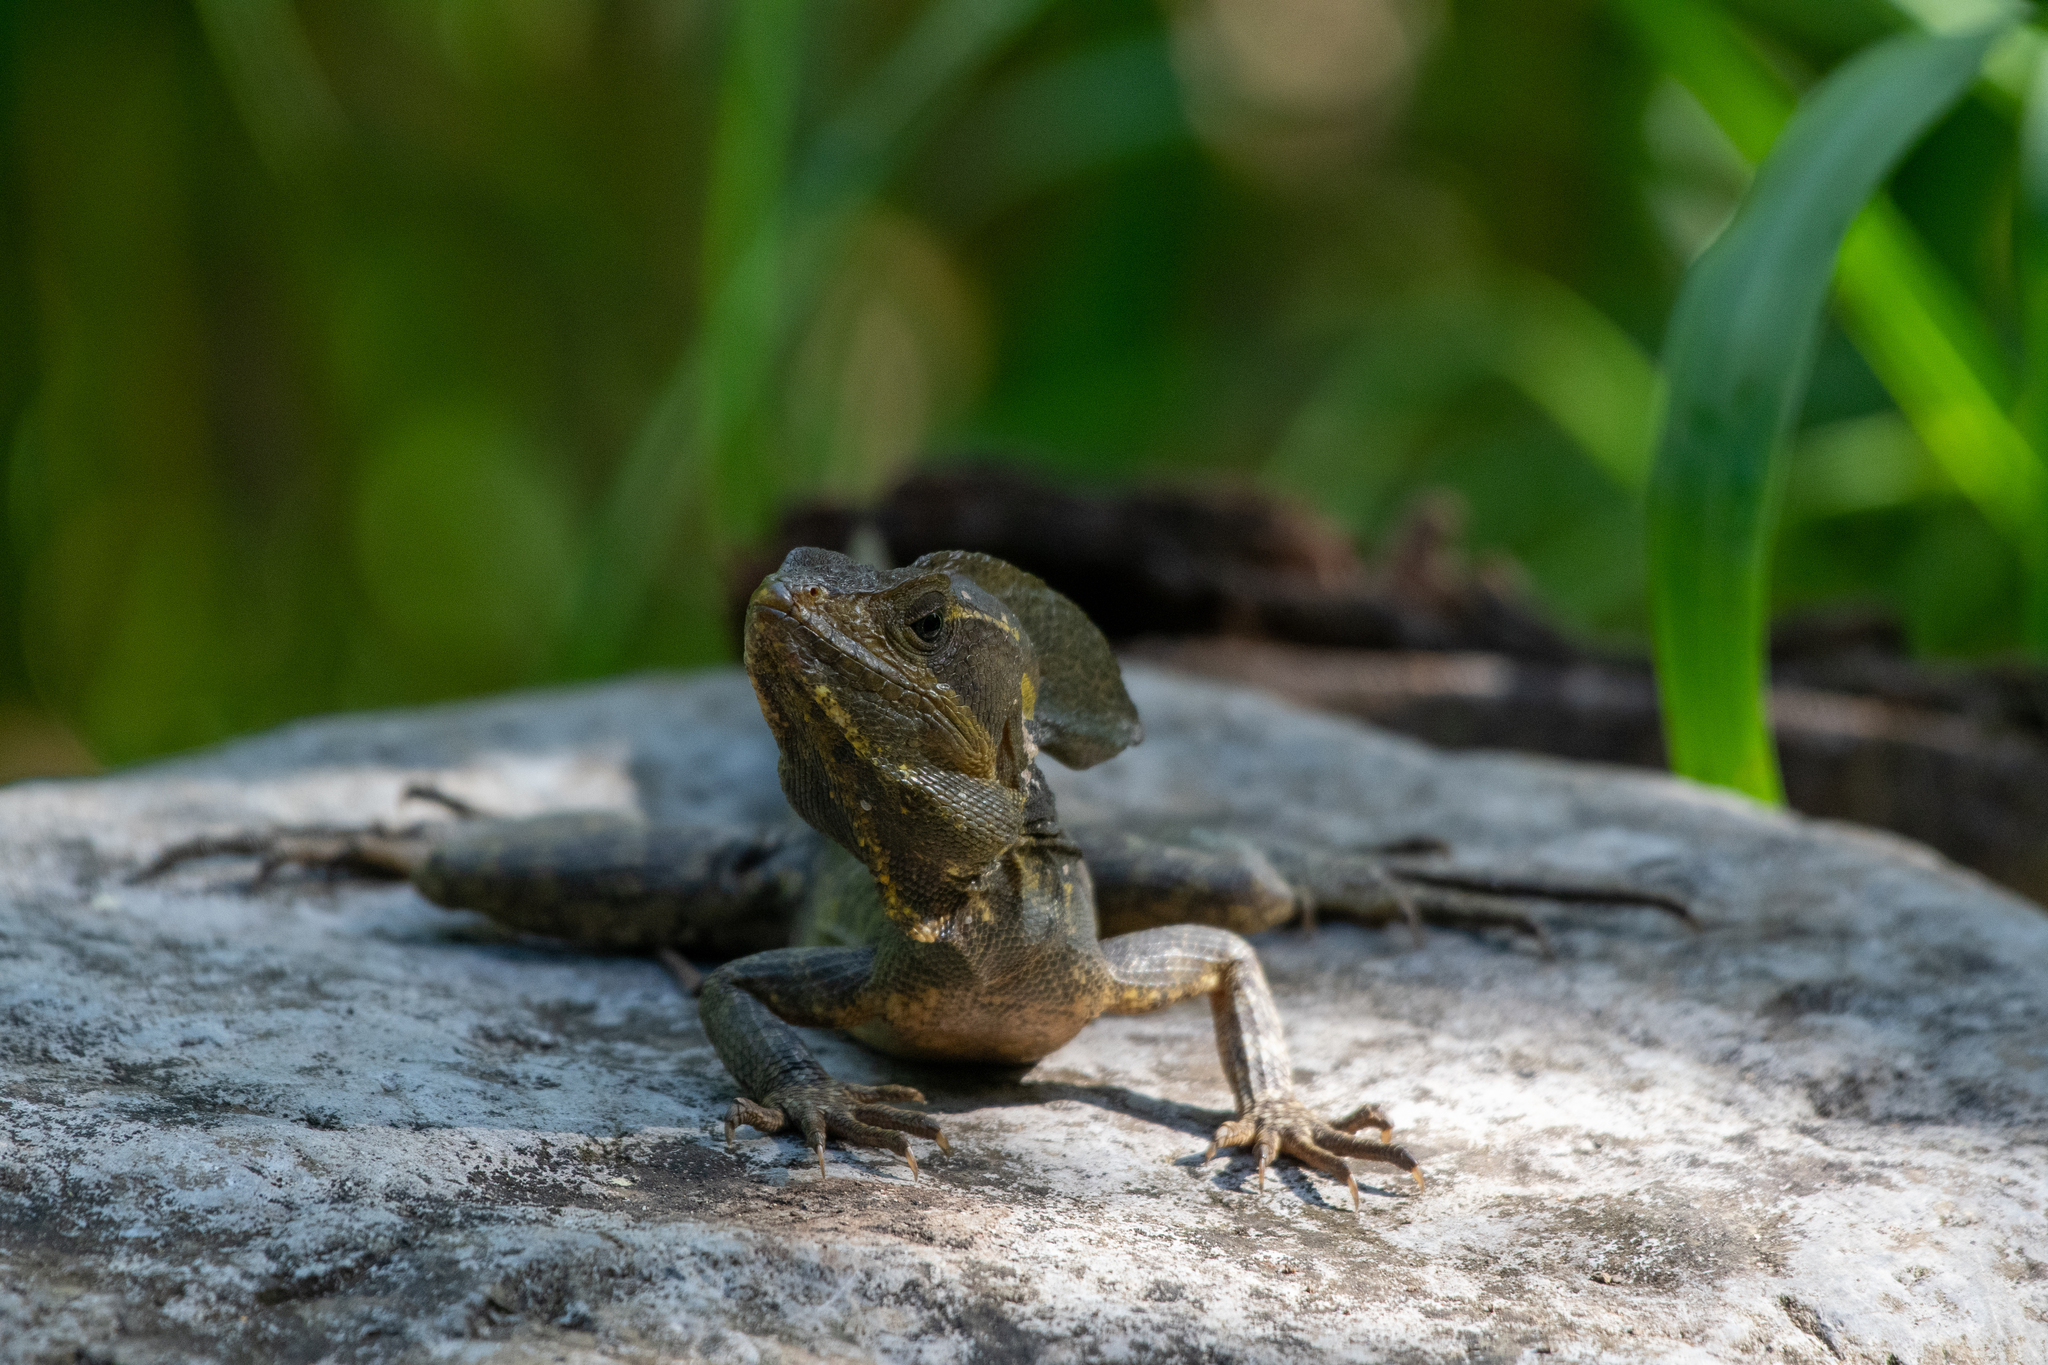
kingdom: Animalia
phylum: Chordata
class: Squamata
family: Corytophanidae
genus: Basiliscus
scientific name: Basiliscus vittatus
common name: Brown basilisk
